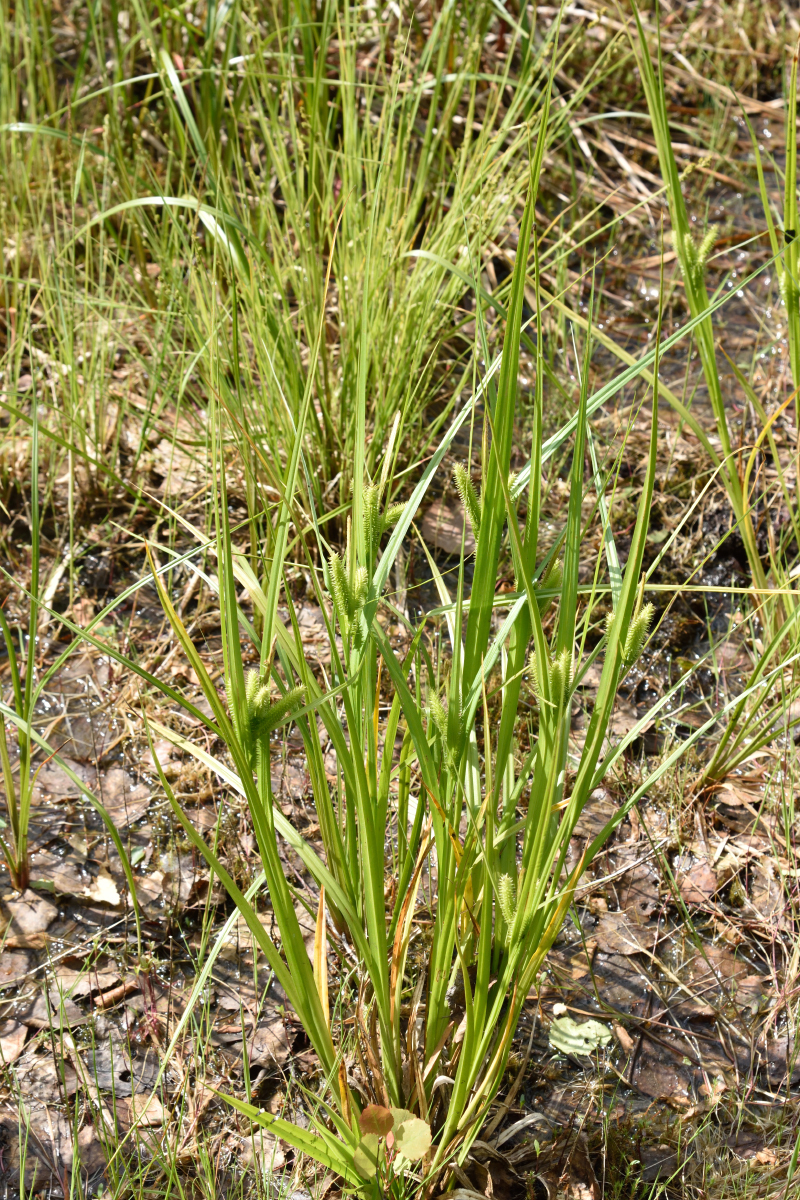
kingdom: Plantae
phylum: Tracheophyta
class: Liliopsida
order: Poales
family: Cyperaceae
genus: Carex
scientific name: Carex pseudocyperus
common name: Cyperus sedge
